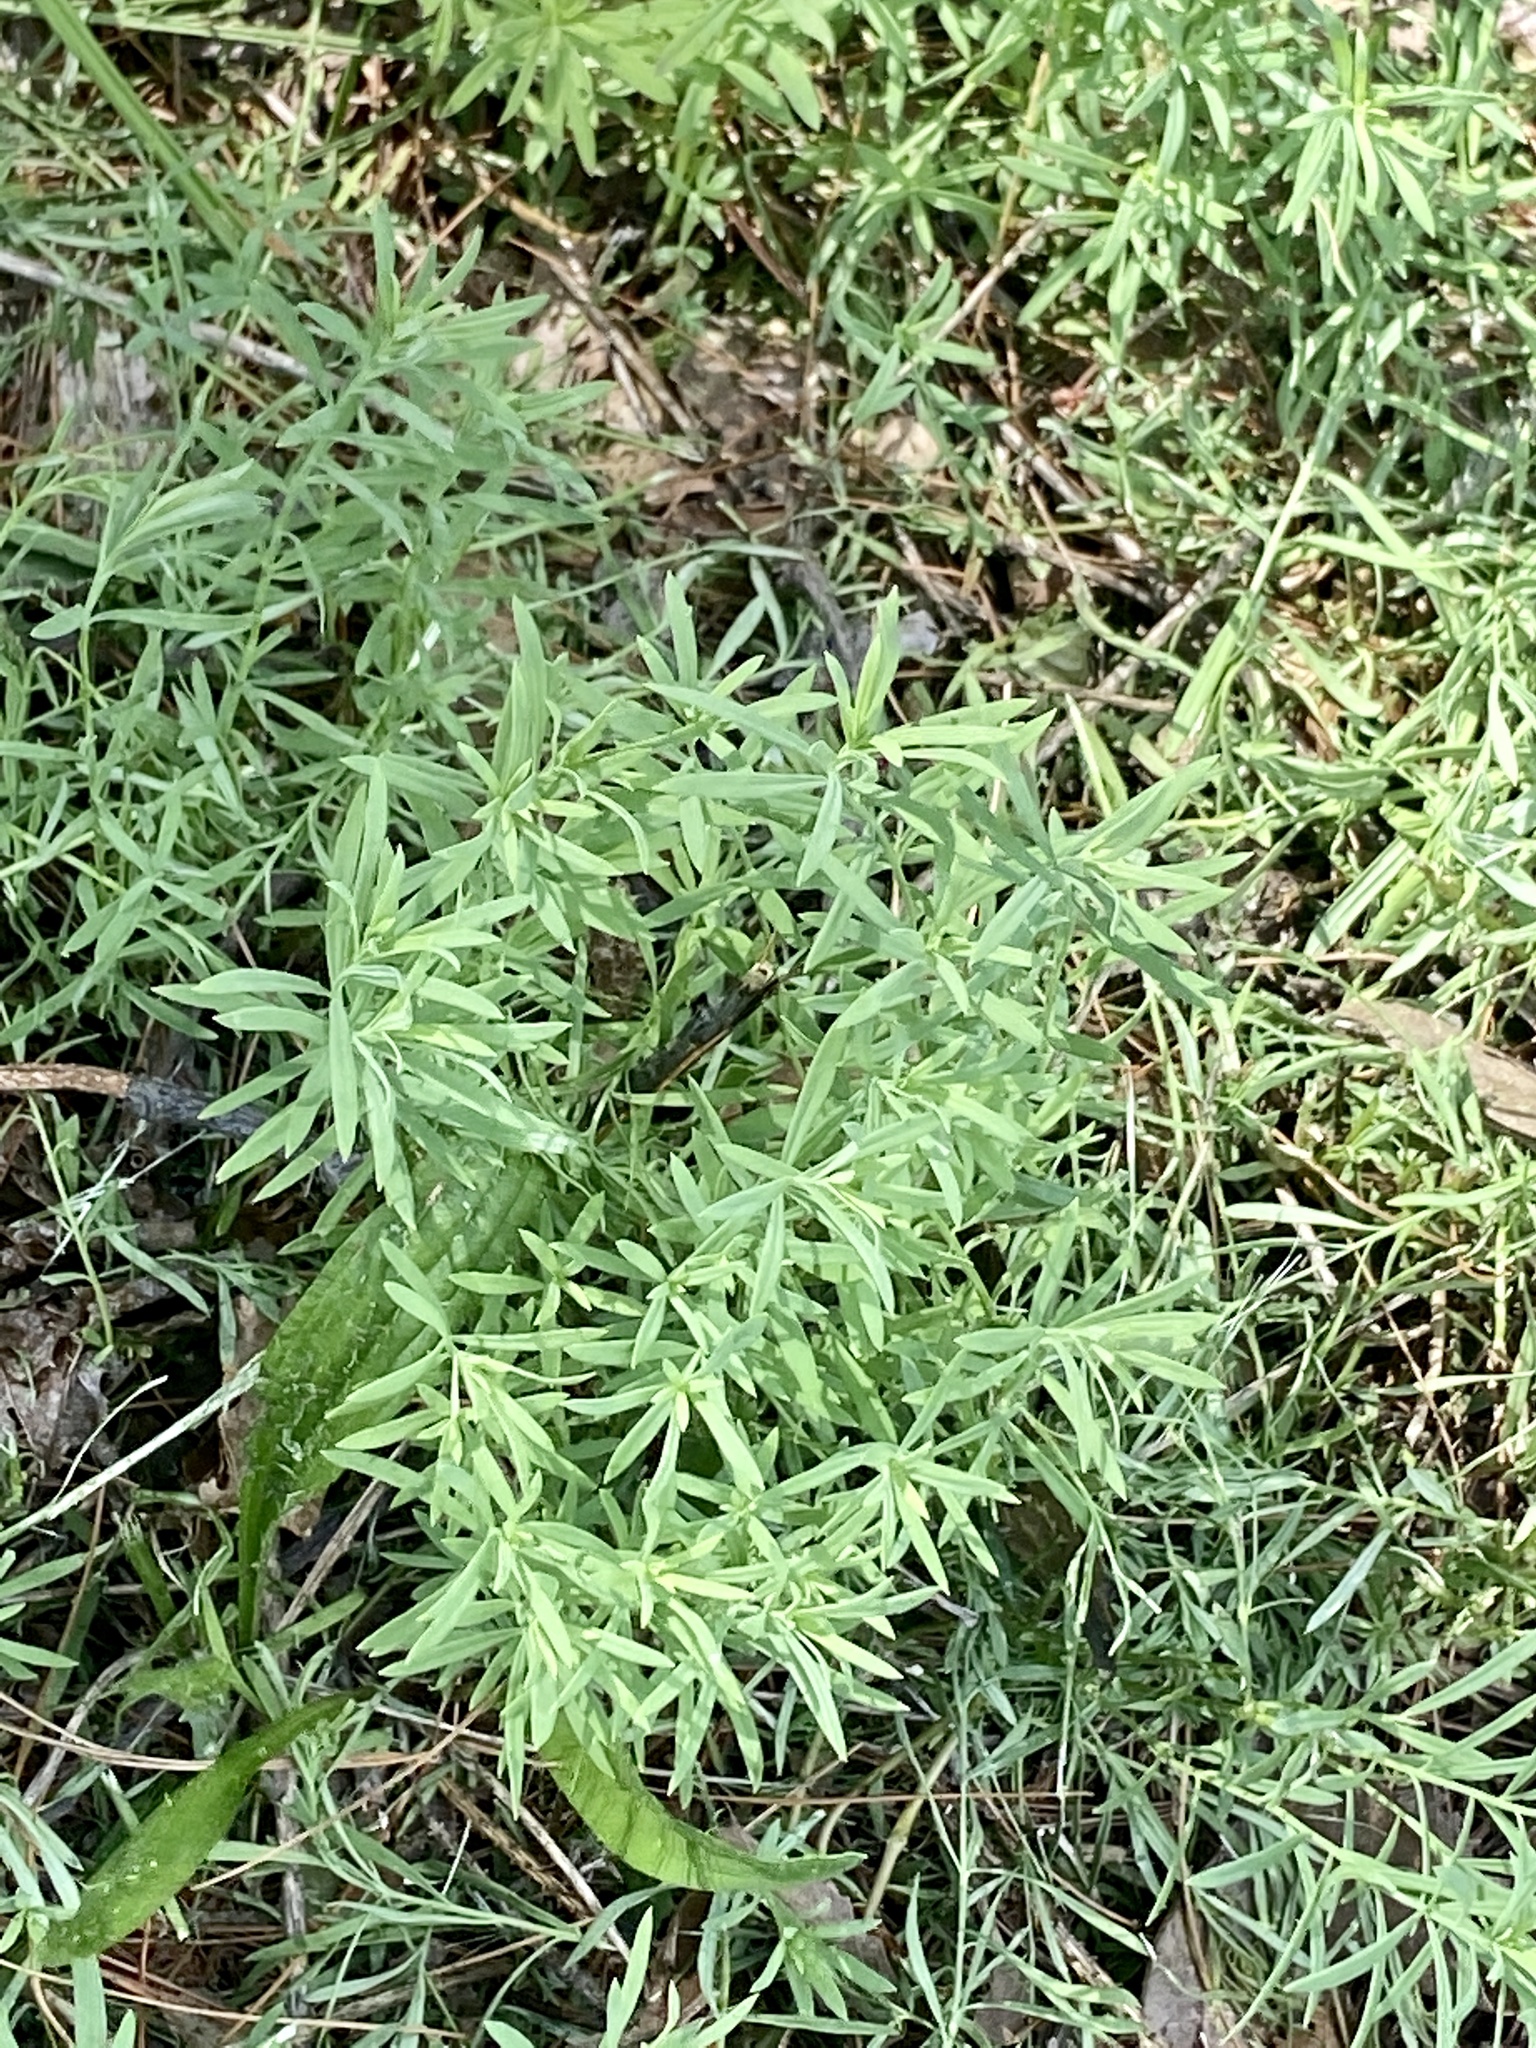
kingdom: Plantae
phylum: Tracheophyta
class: Magnoliopsida
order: Lamiales
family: Plantaginaceae
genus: Linaria
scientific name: Linaria vulgaris
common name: Butter and eggs
